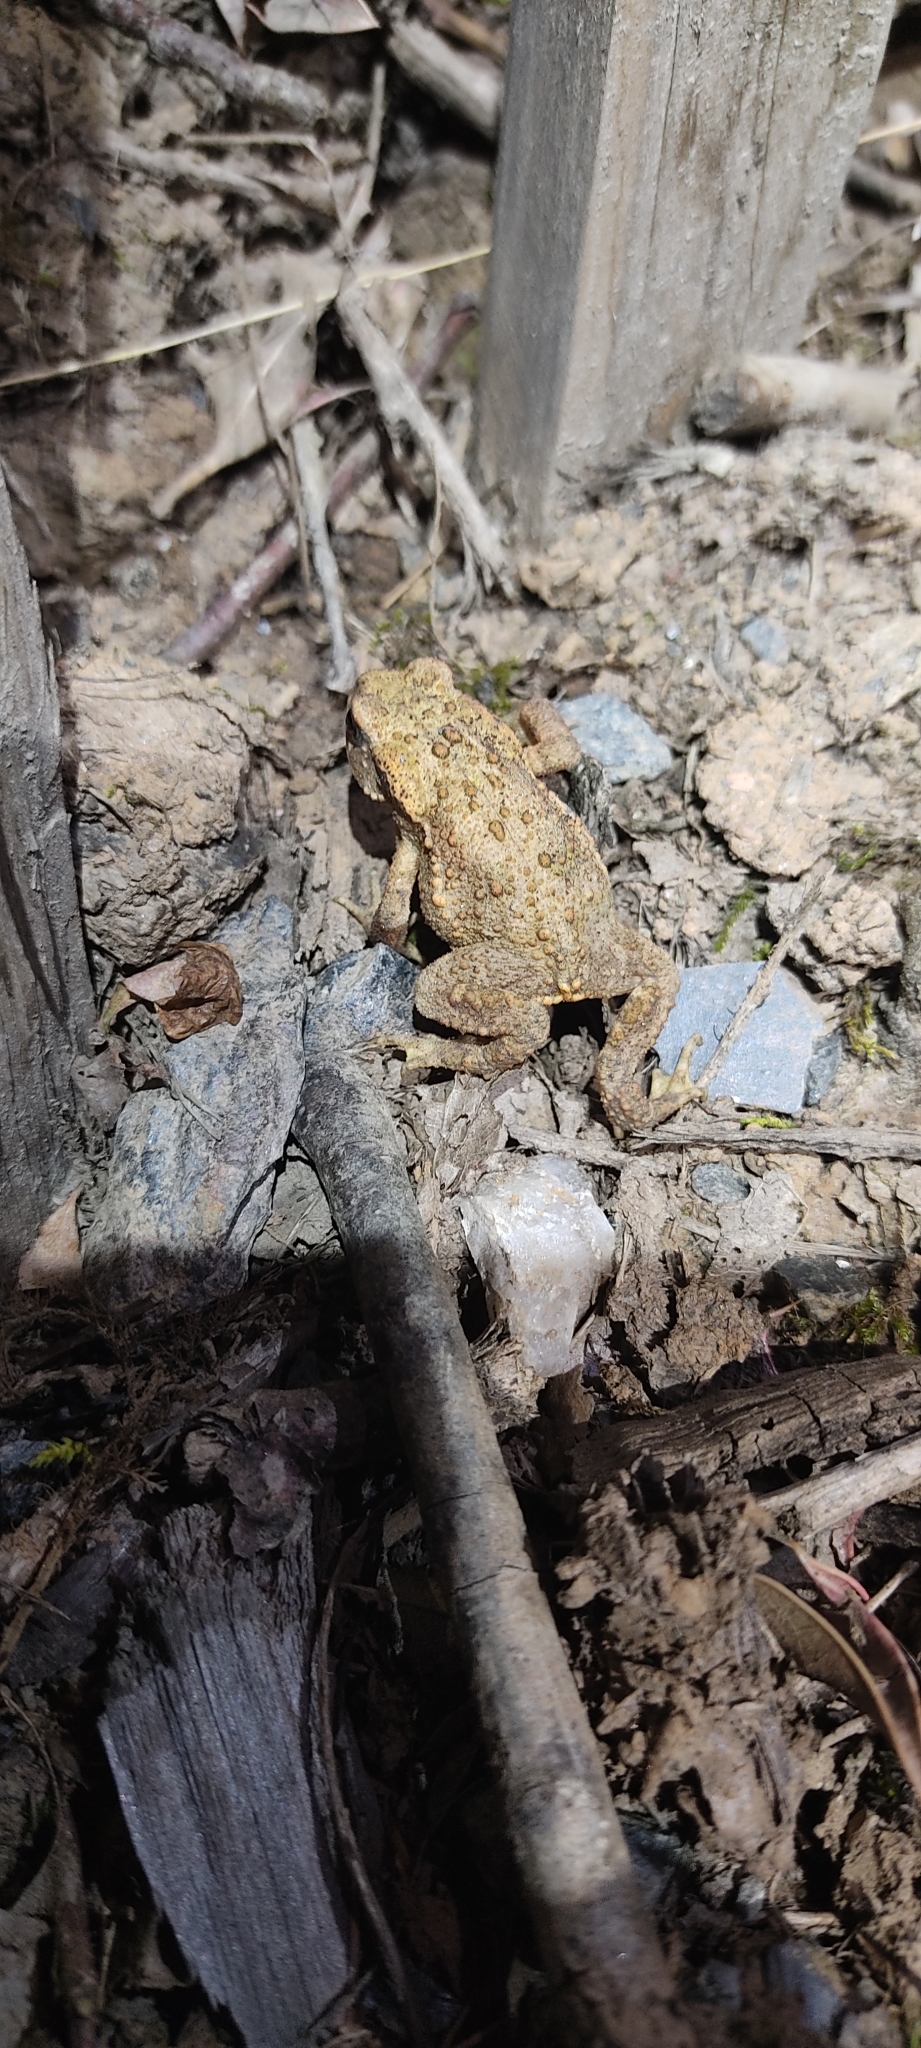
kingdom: Animalia
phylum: Chordata
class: Amphibia
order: Anura
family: Bufonidae
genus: Bufo
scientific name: Bufo spinosus
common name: Western common toad
